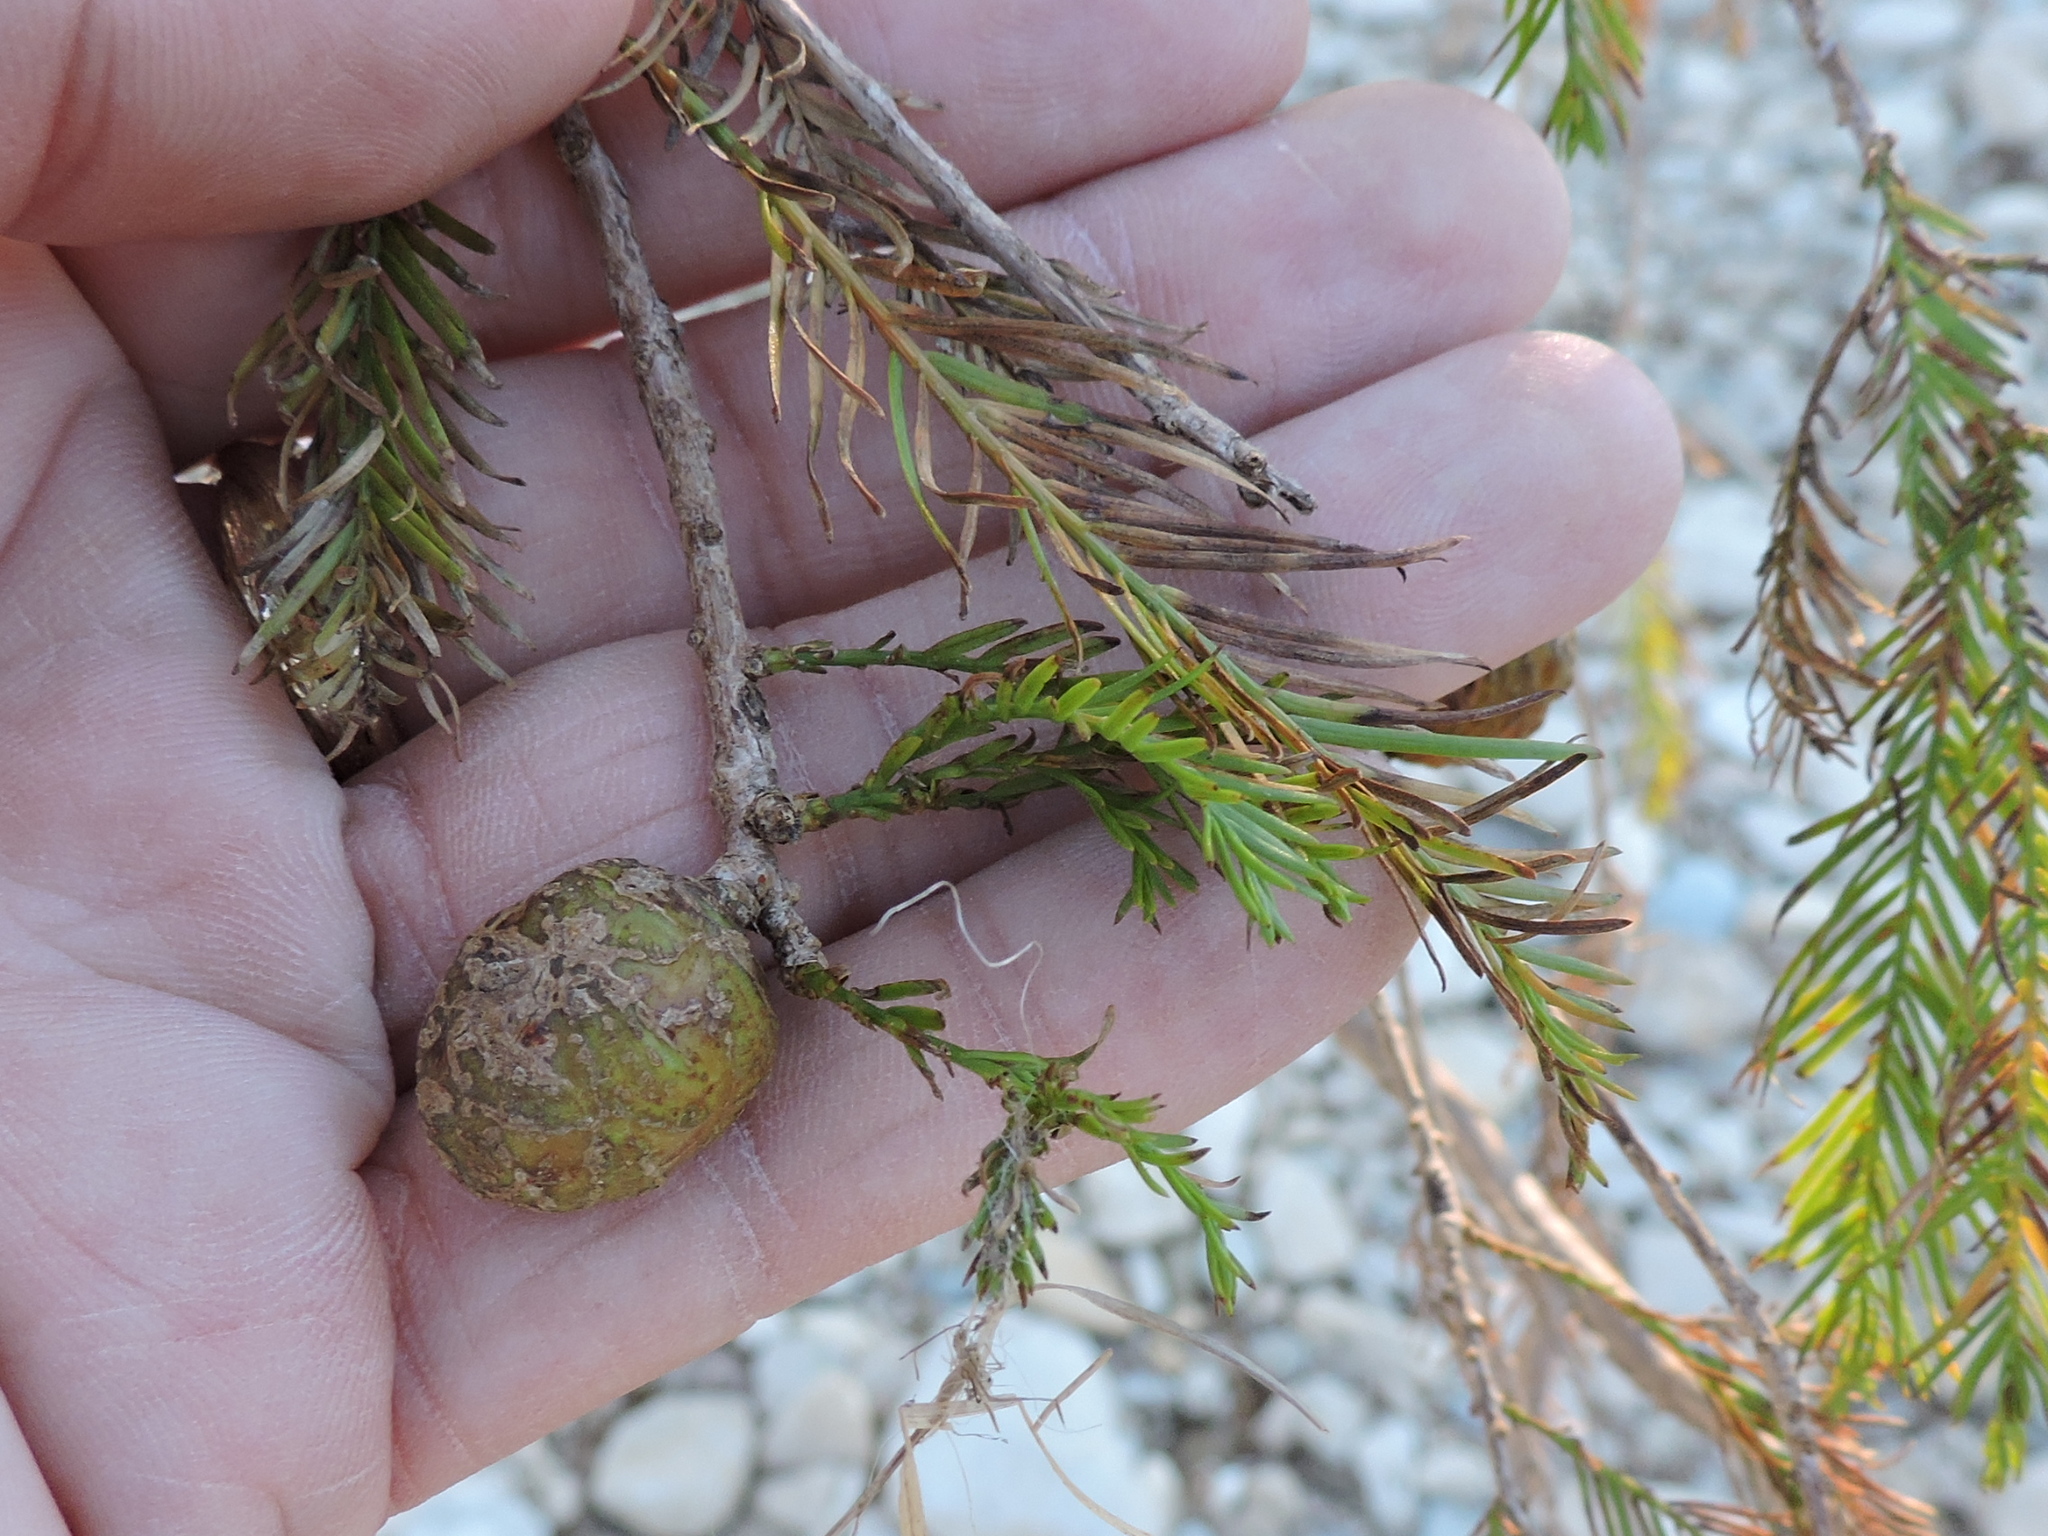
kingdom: Plantae
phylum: Tracheophyta
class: Pinopsida
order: Pinales
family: Cupressaceae
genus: Taxodium
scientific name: Taxodium distichum
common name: Bald cypress
